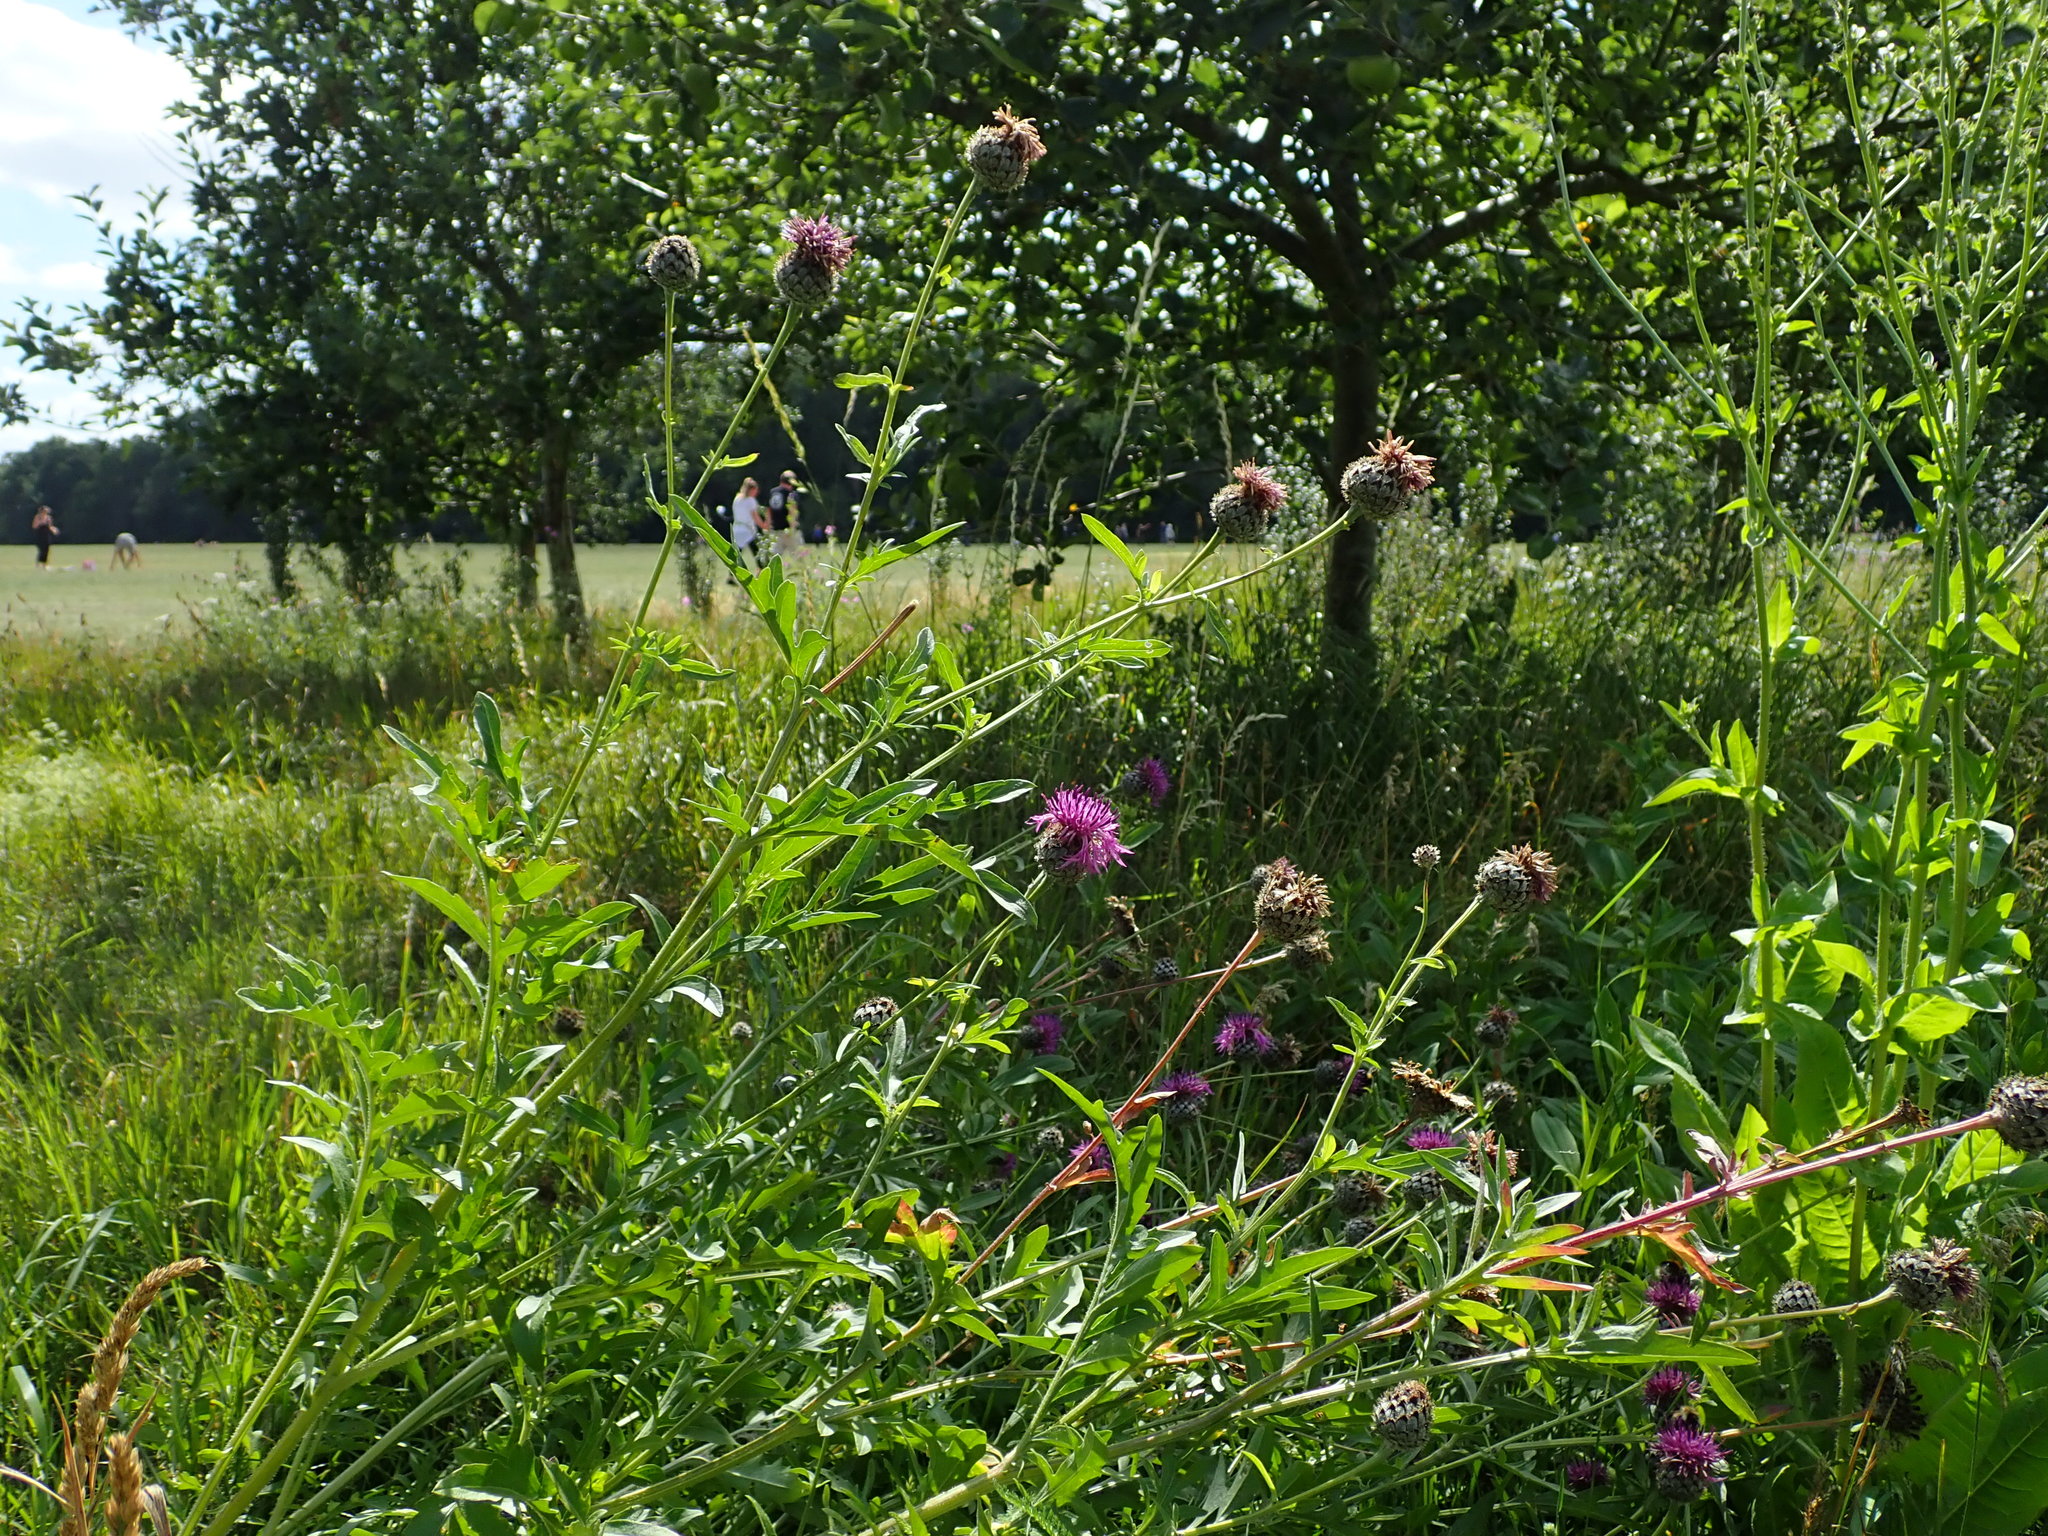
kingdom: Plantae
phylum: Tracheophyta
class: Magnoliopsida
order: Asterales
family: Asteraceae
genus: Centaurea
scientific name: Centaurea scabiosa
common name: Greater knapweed
